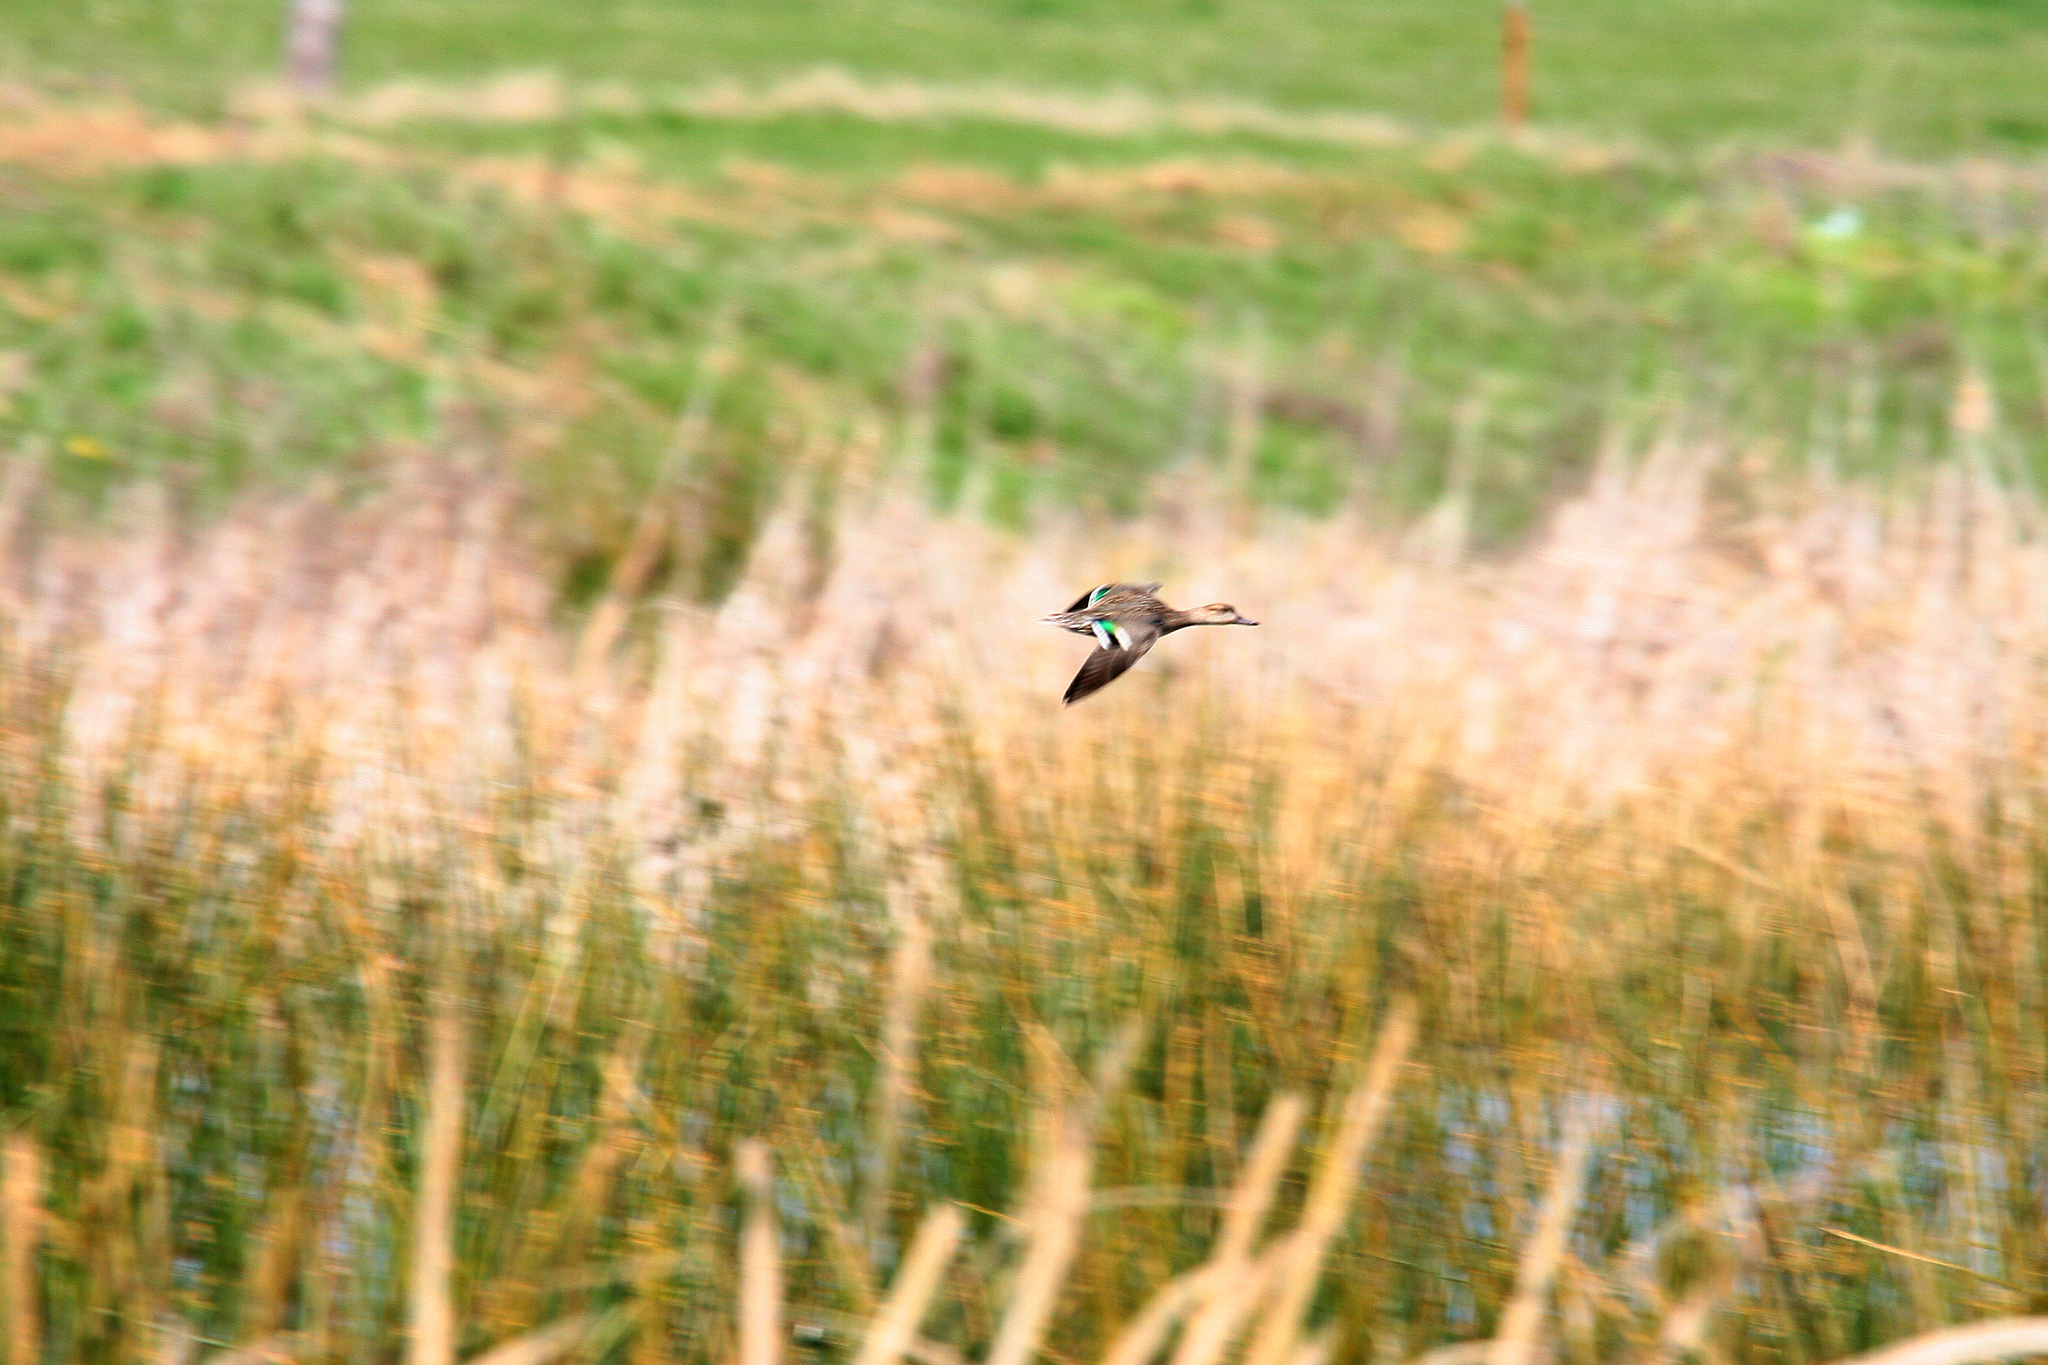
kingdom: Animalia
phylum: Chordata
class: Aves
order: Anseriformes
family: Anatidae
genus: Anas
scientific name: Anas crecca
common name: Eurasian teal
